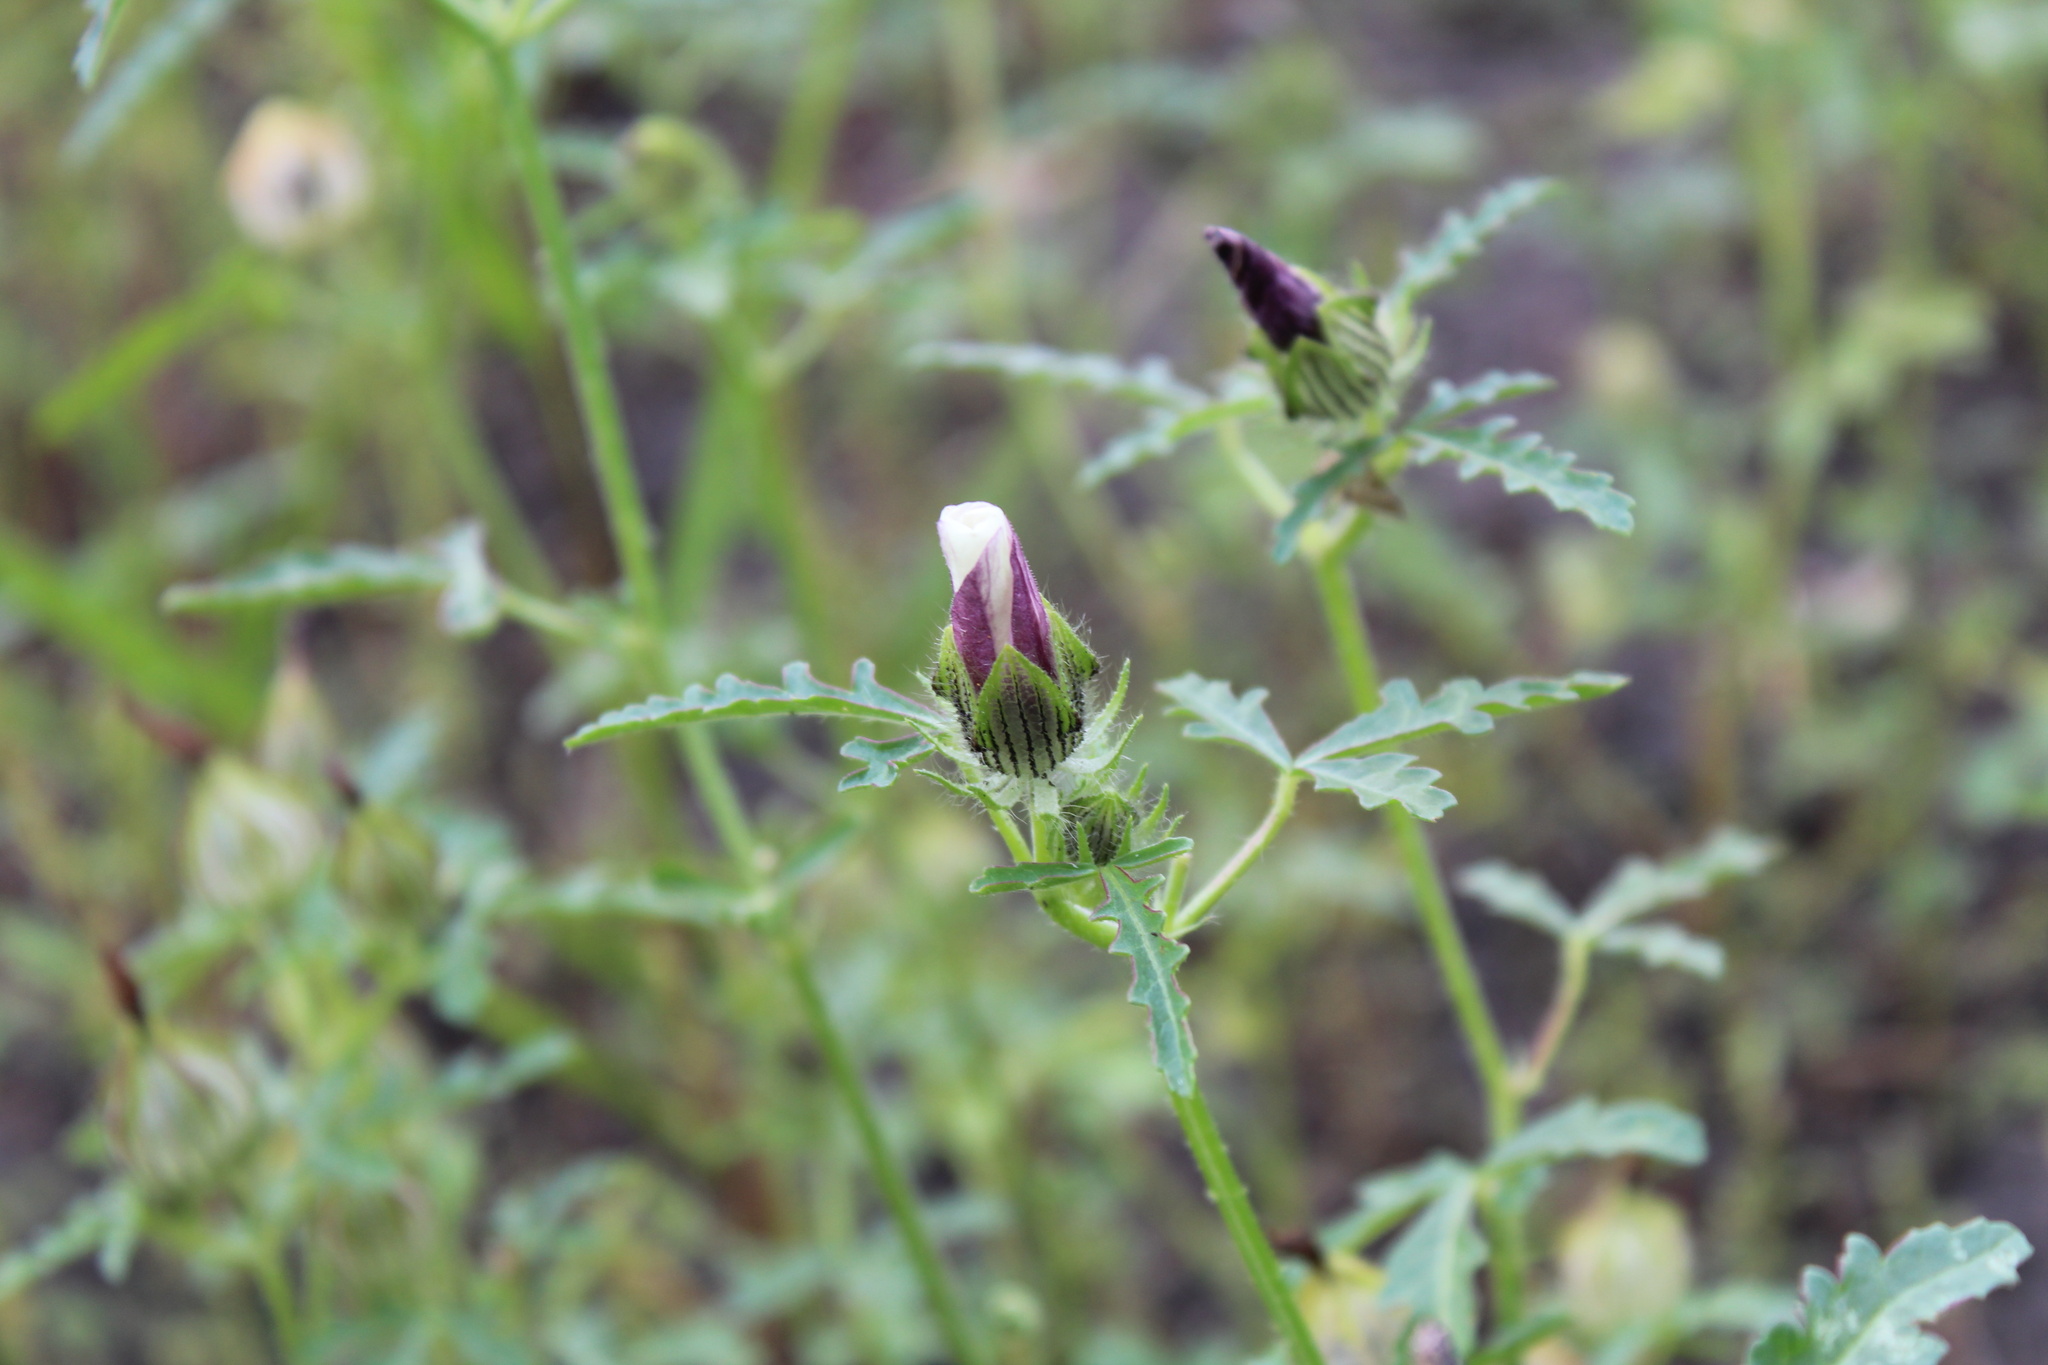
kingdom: Plantae
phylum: Tracheophyta
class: Magnoliopsida
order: Malvales
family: Malvaceae
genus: Hibiscus
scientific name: Hibiscus trionum
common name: Bladder ketmia
